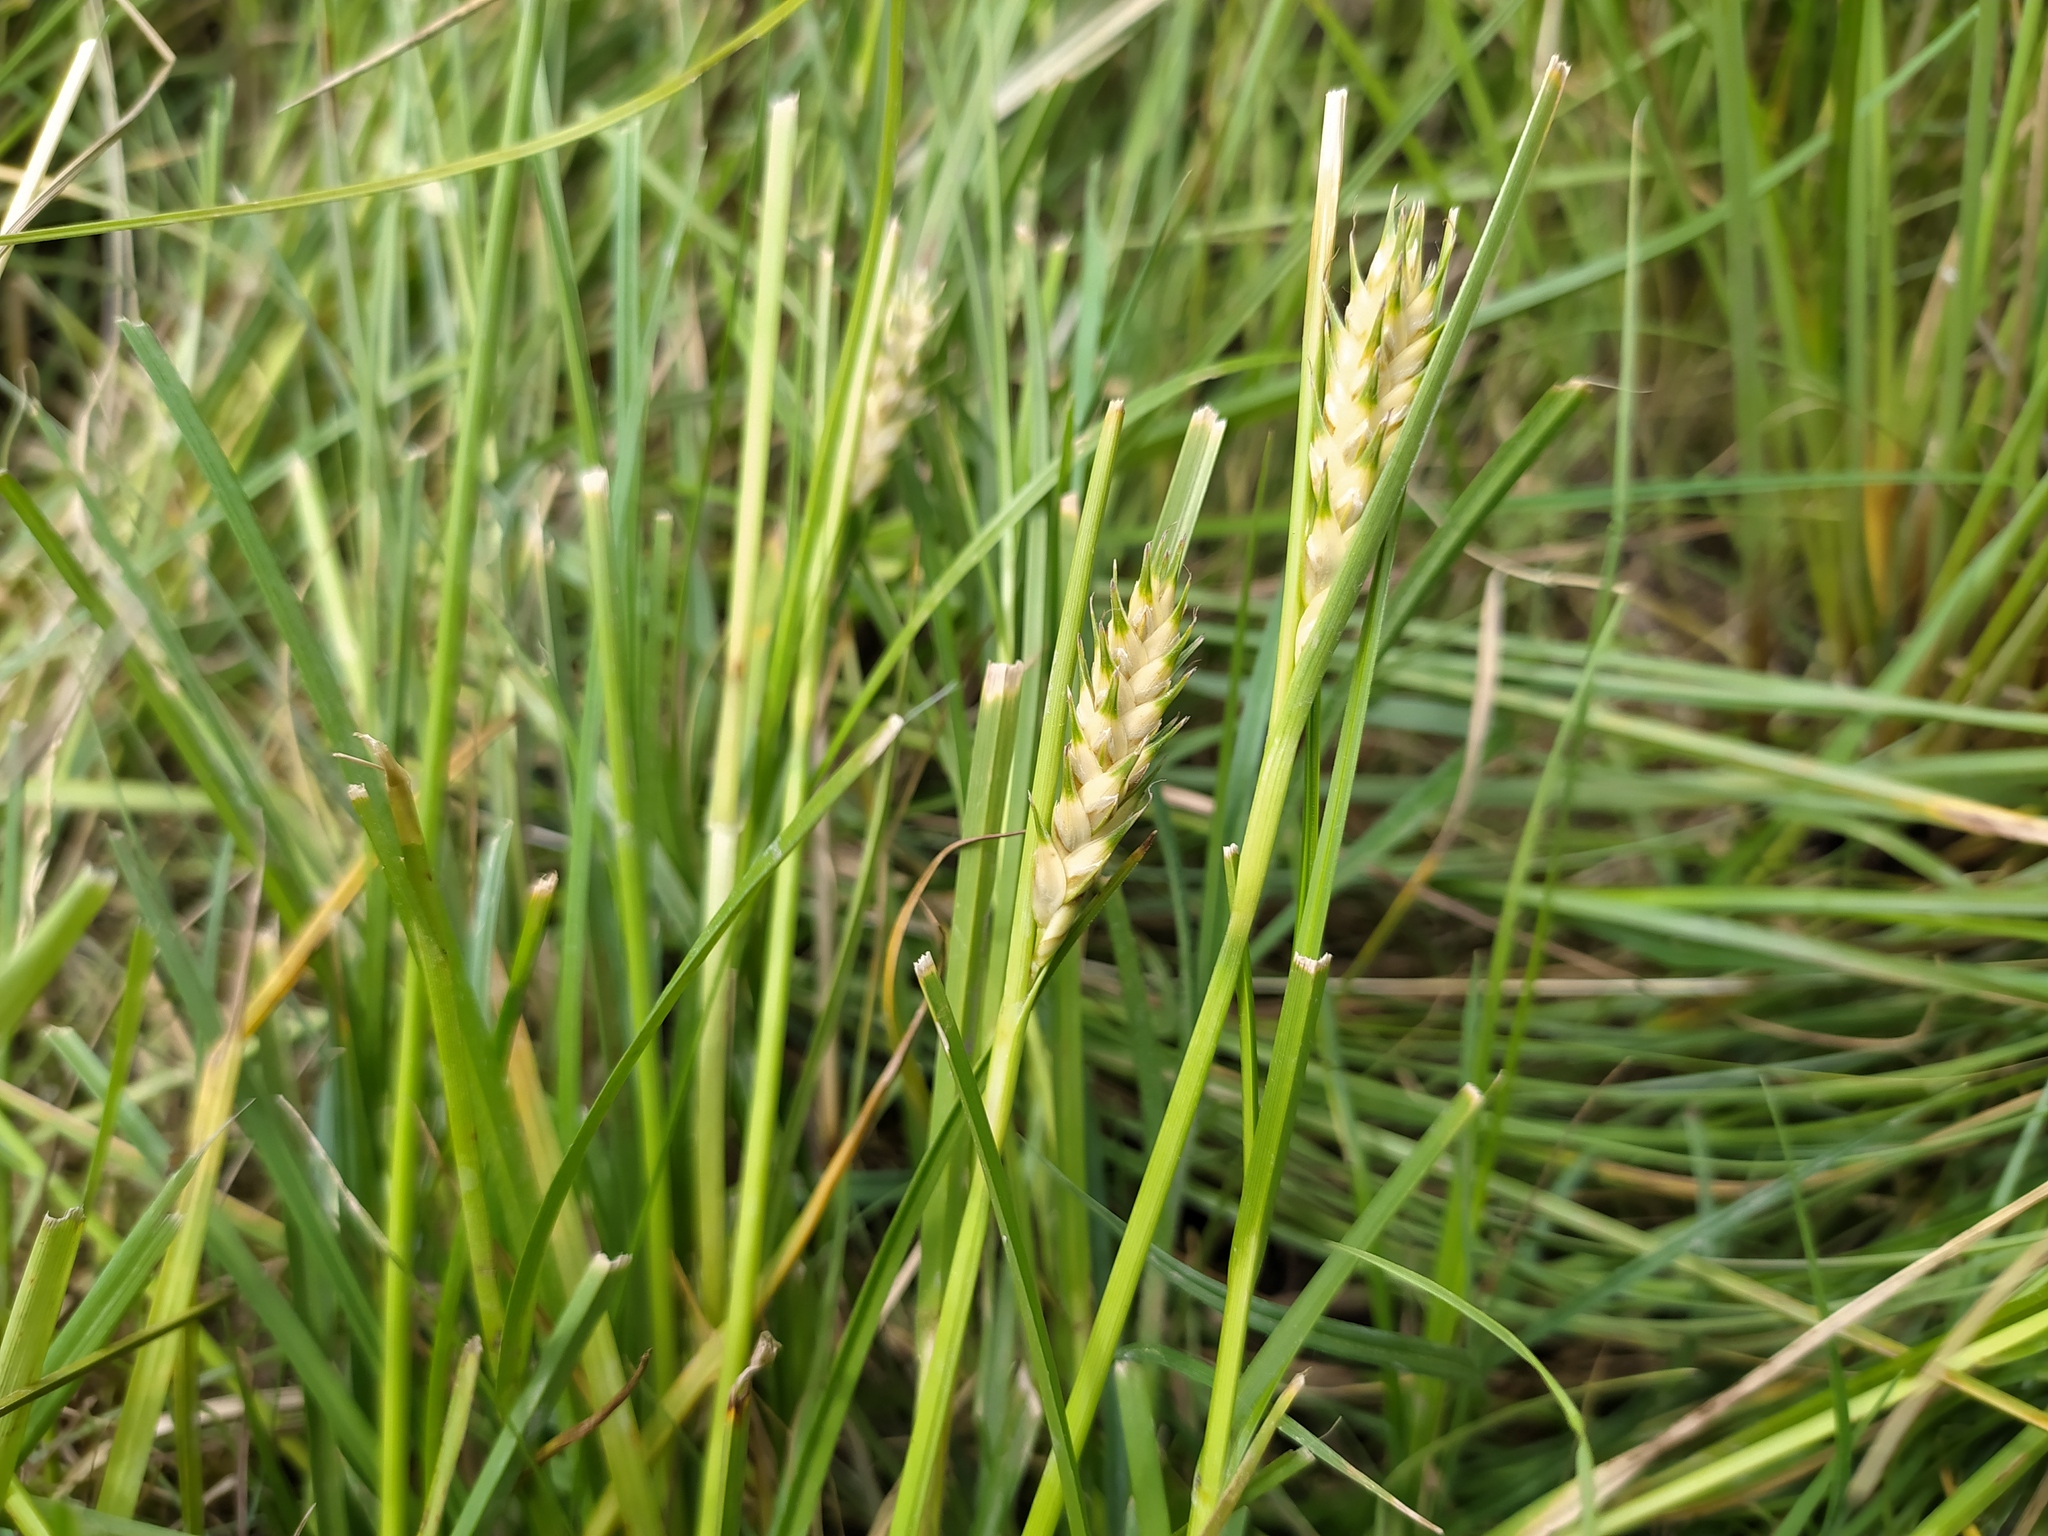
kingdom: Plantae
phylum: Tracheophyta
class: Liliopsida
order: Poales
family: Cyperaceae
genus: Carex
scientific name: Carex hordeistichos
